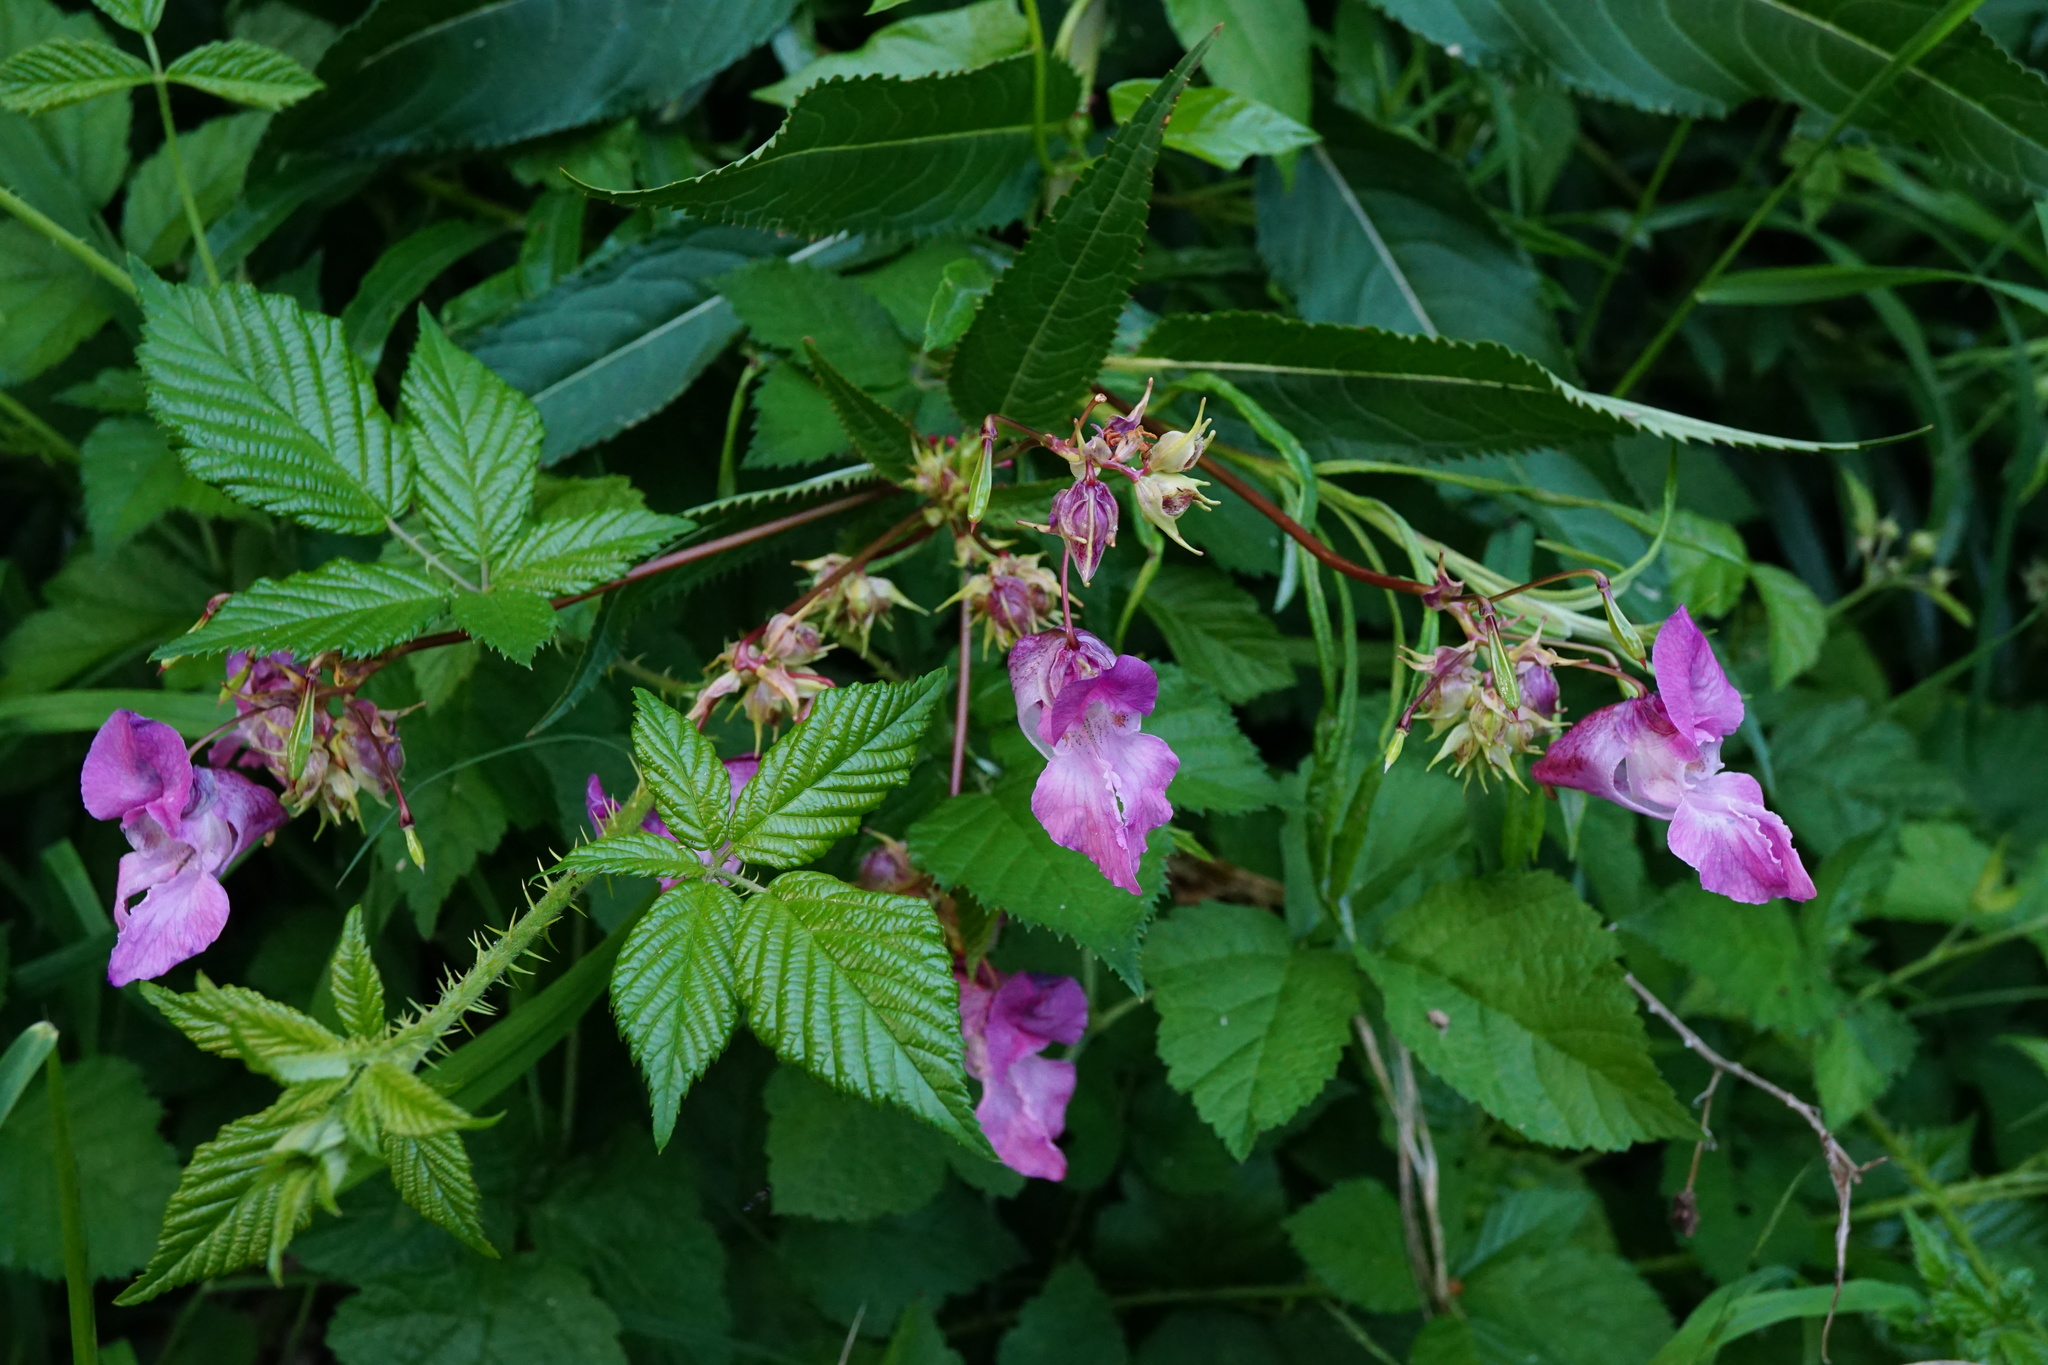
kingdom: Plantae
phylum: Tracheophyta
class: Magnoliopsida
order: Ericales
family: Balsaminaceae
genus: Impatiens
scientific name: Impatiens glandulifera
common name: Himalayan balsam
